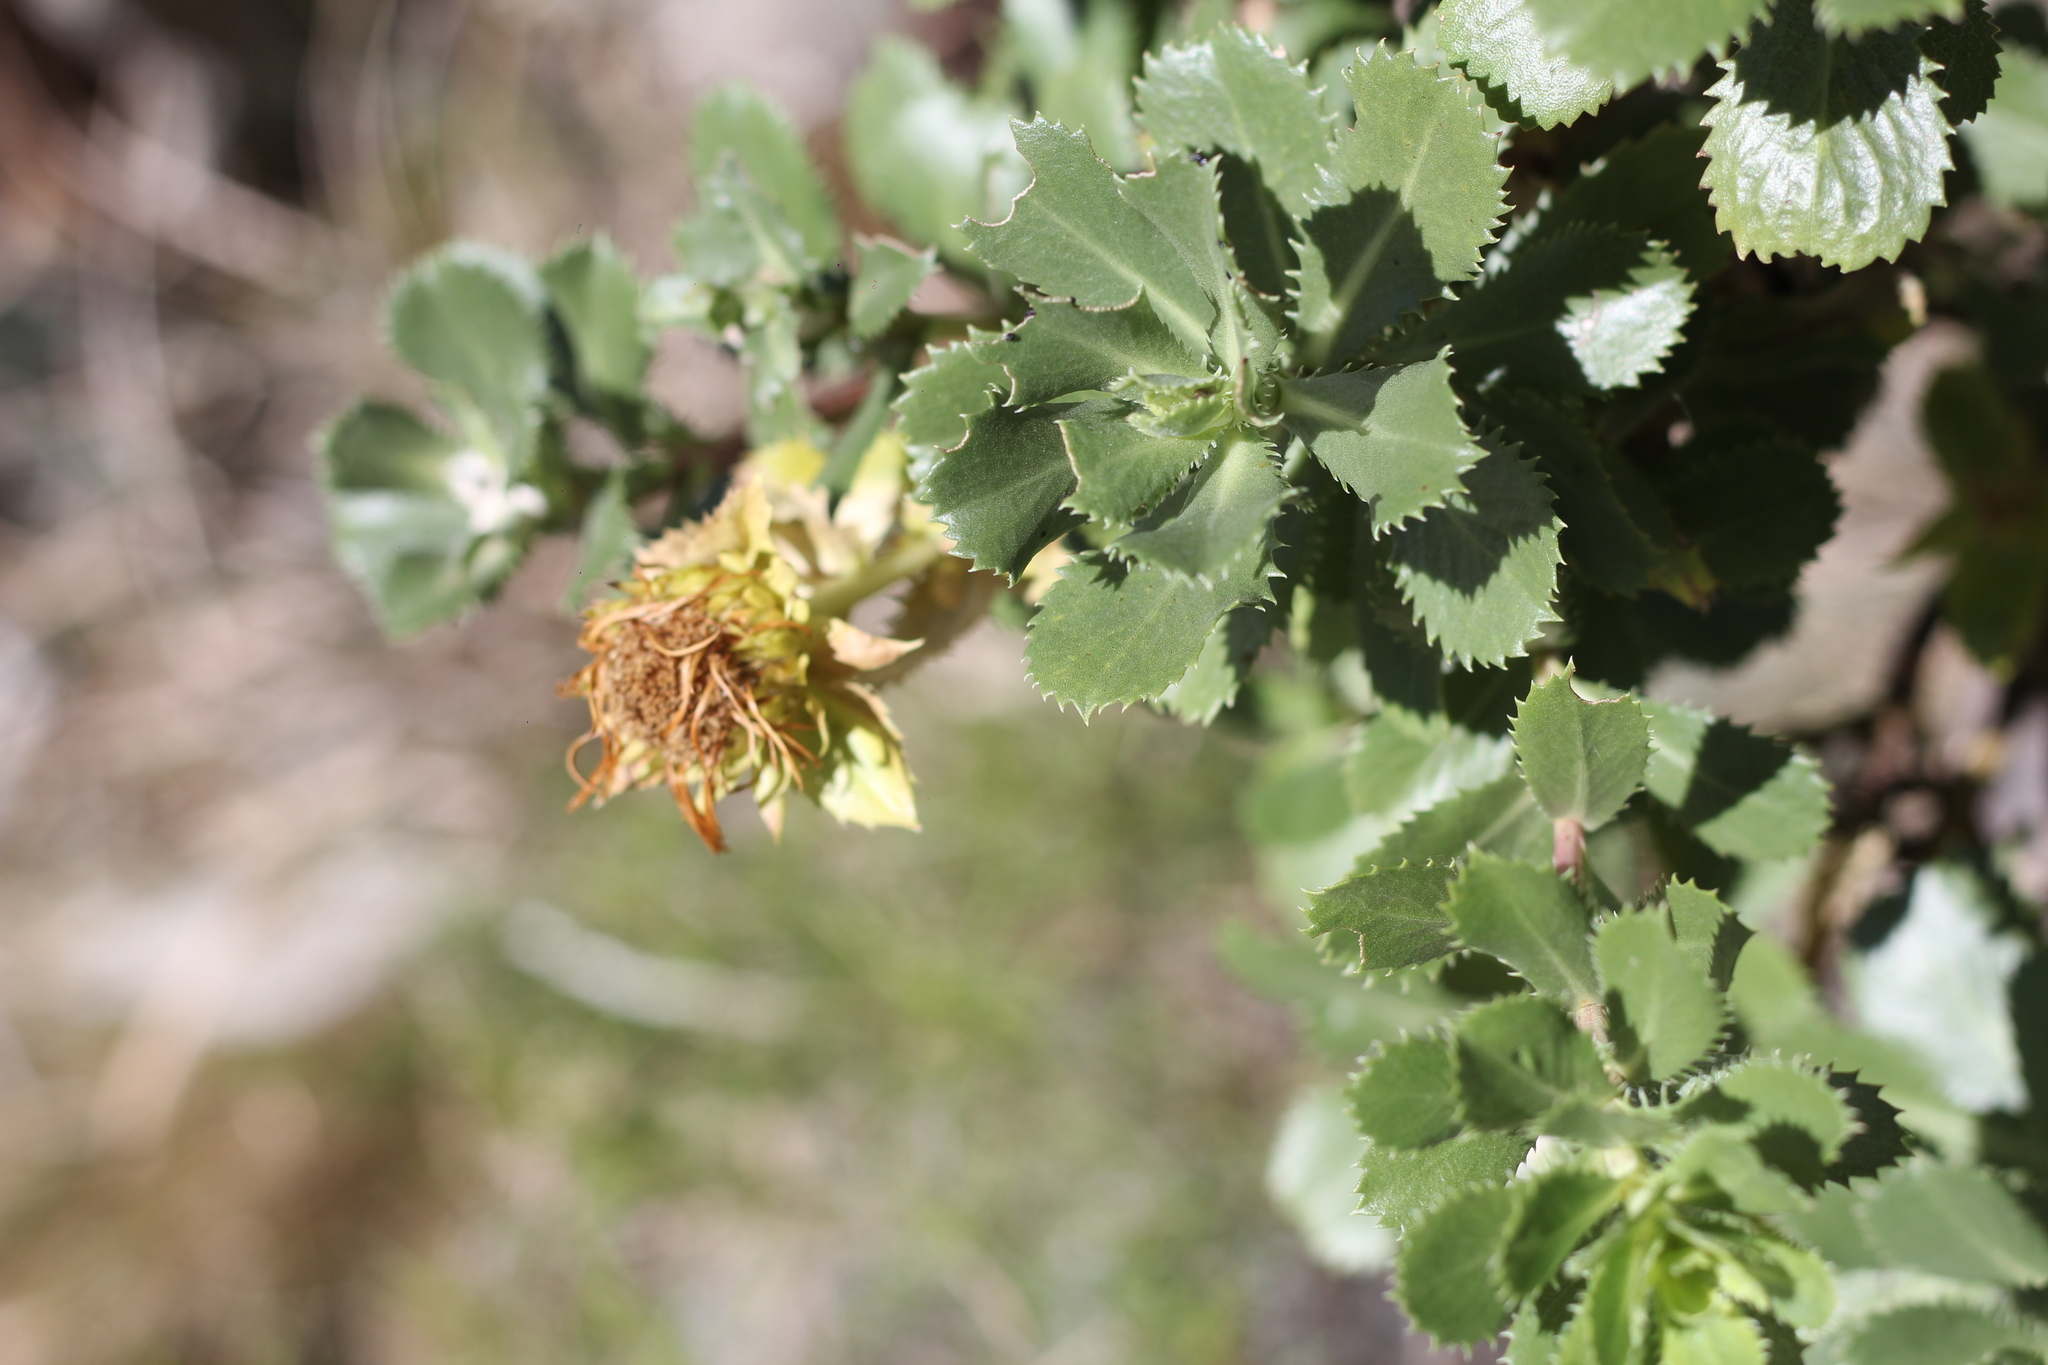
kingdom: Plantae
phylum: Tracheophyta
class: Magnoliopsida
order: Asterales
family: Asteraceae
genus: Grindelia
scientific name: Grindelia buphthalmoides
